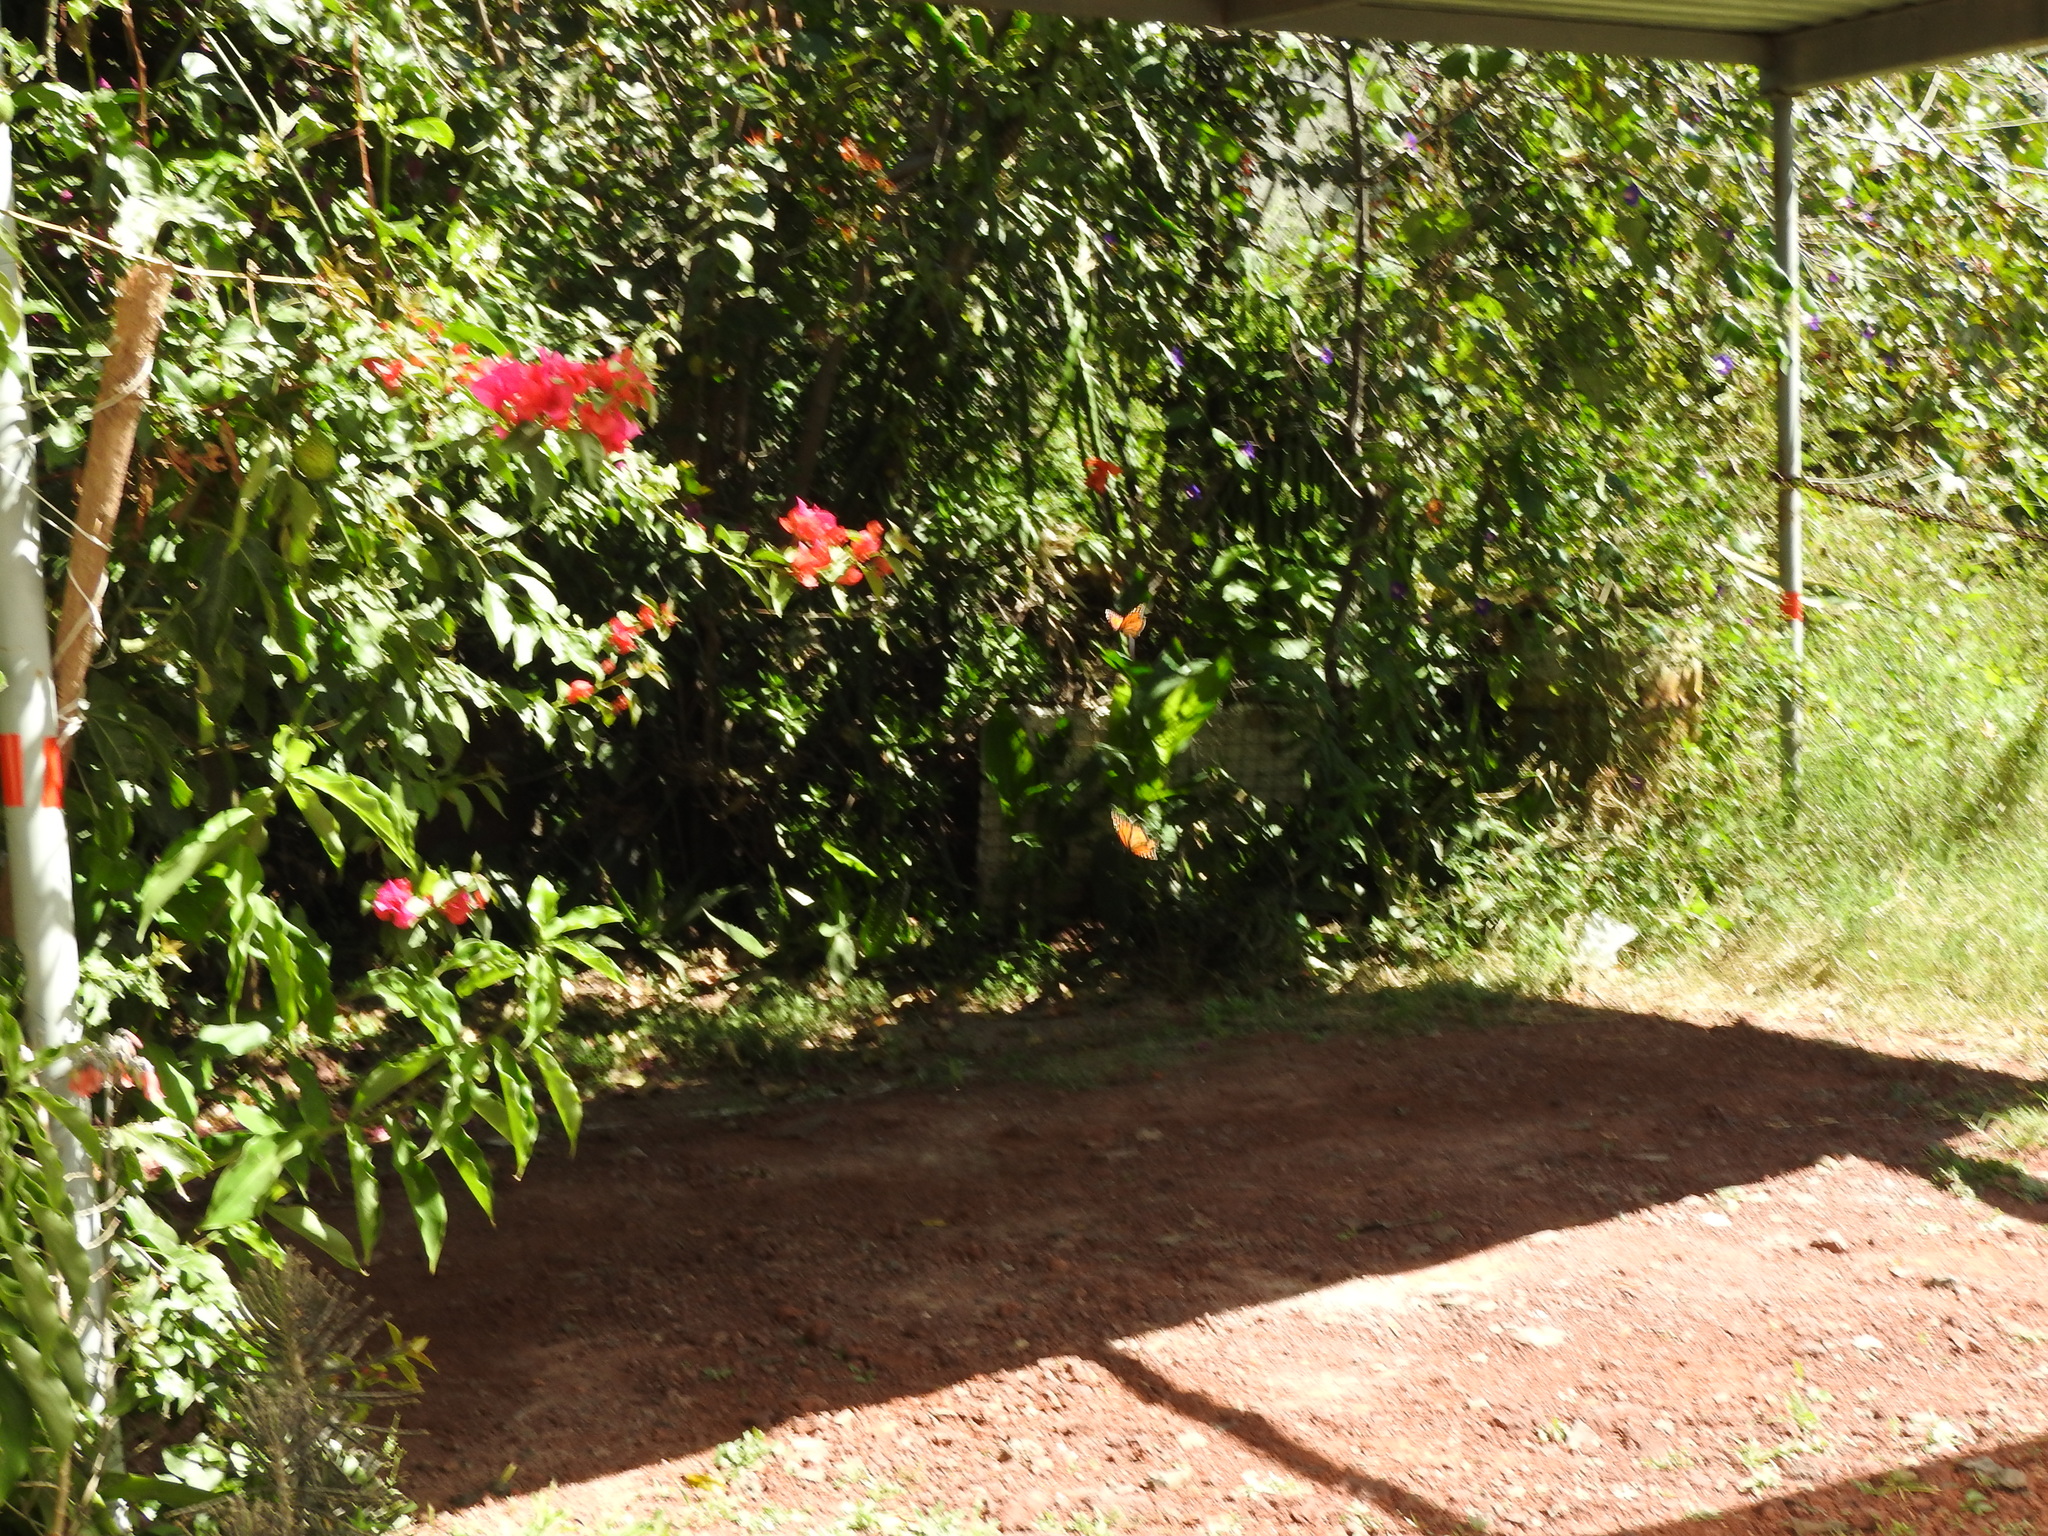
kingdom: Animalia
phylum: Arthropoda
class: Insecta
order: Lepidoptera
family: Nymphalidae
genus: Danaus
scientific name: Danaus plexippus
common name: Monarch
